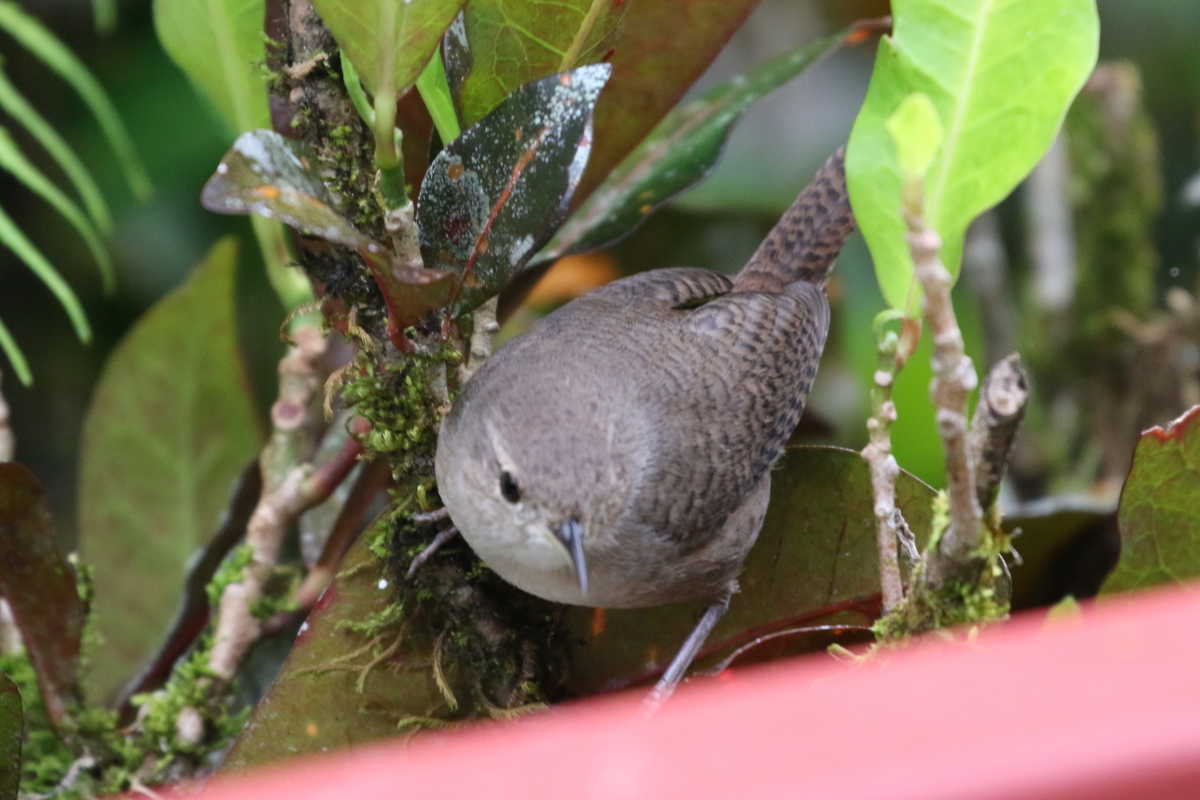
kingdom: Animalia
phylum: Chordata
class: Aves
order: Passeriformes
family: Troglodytidae
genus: Troglodytes
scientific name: Troglodytes aedon
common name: House wren
